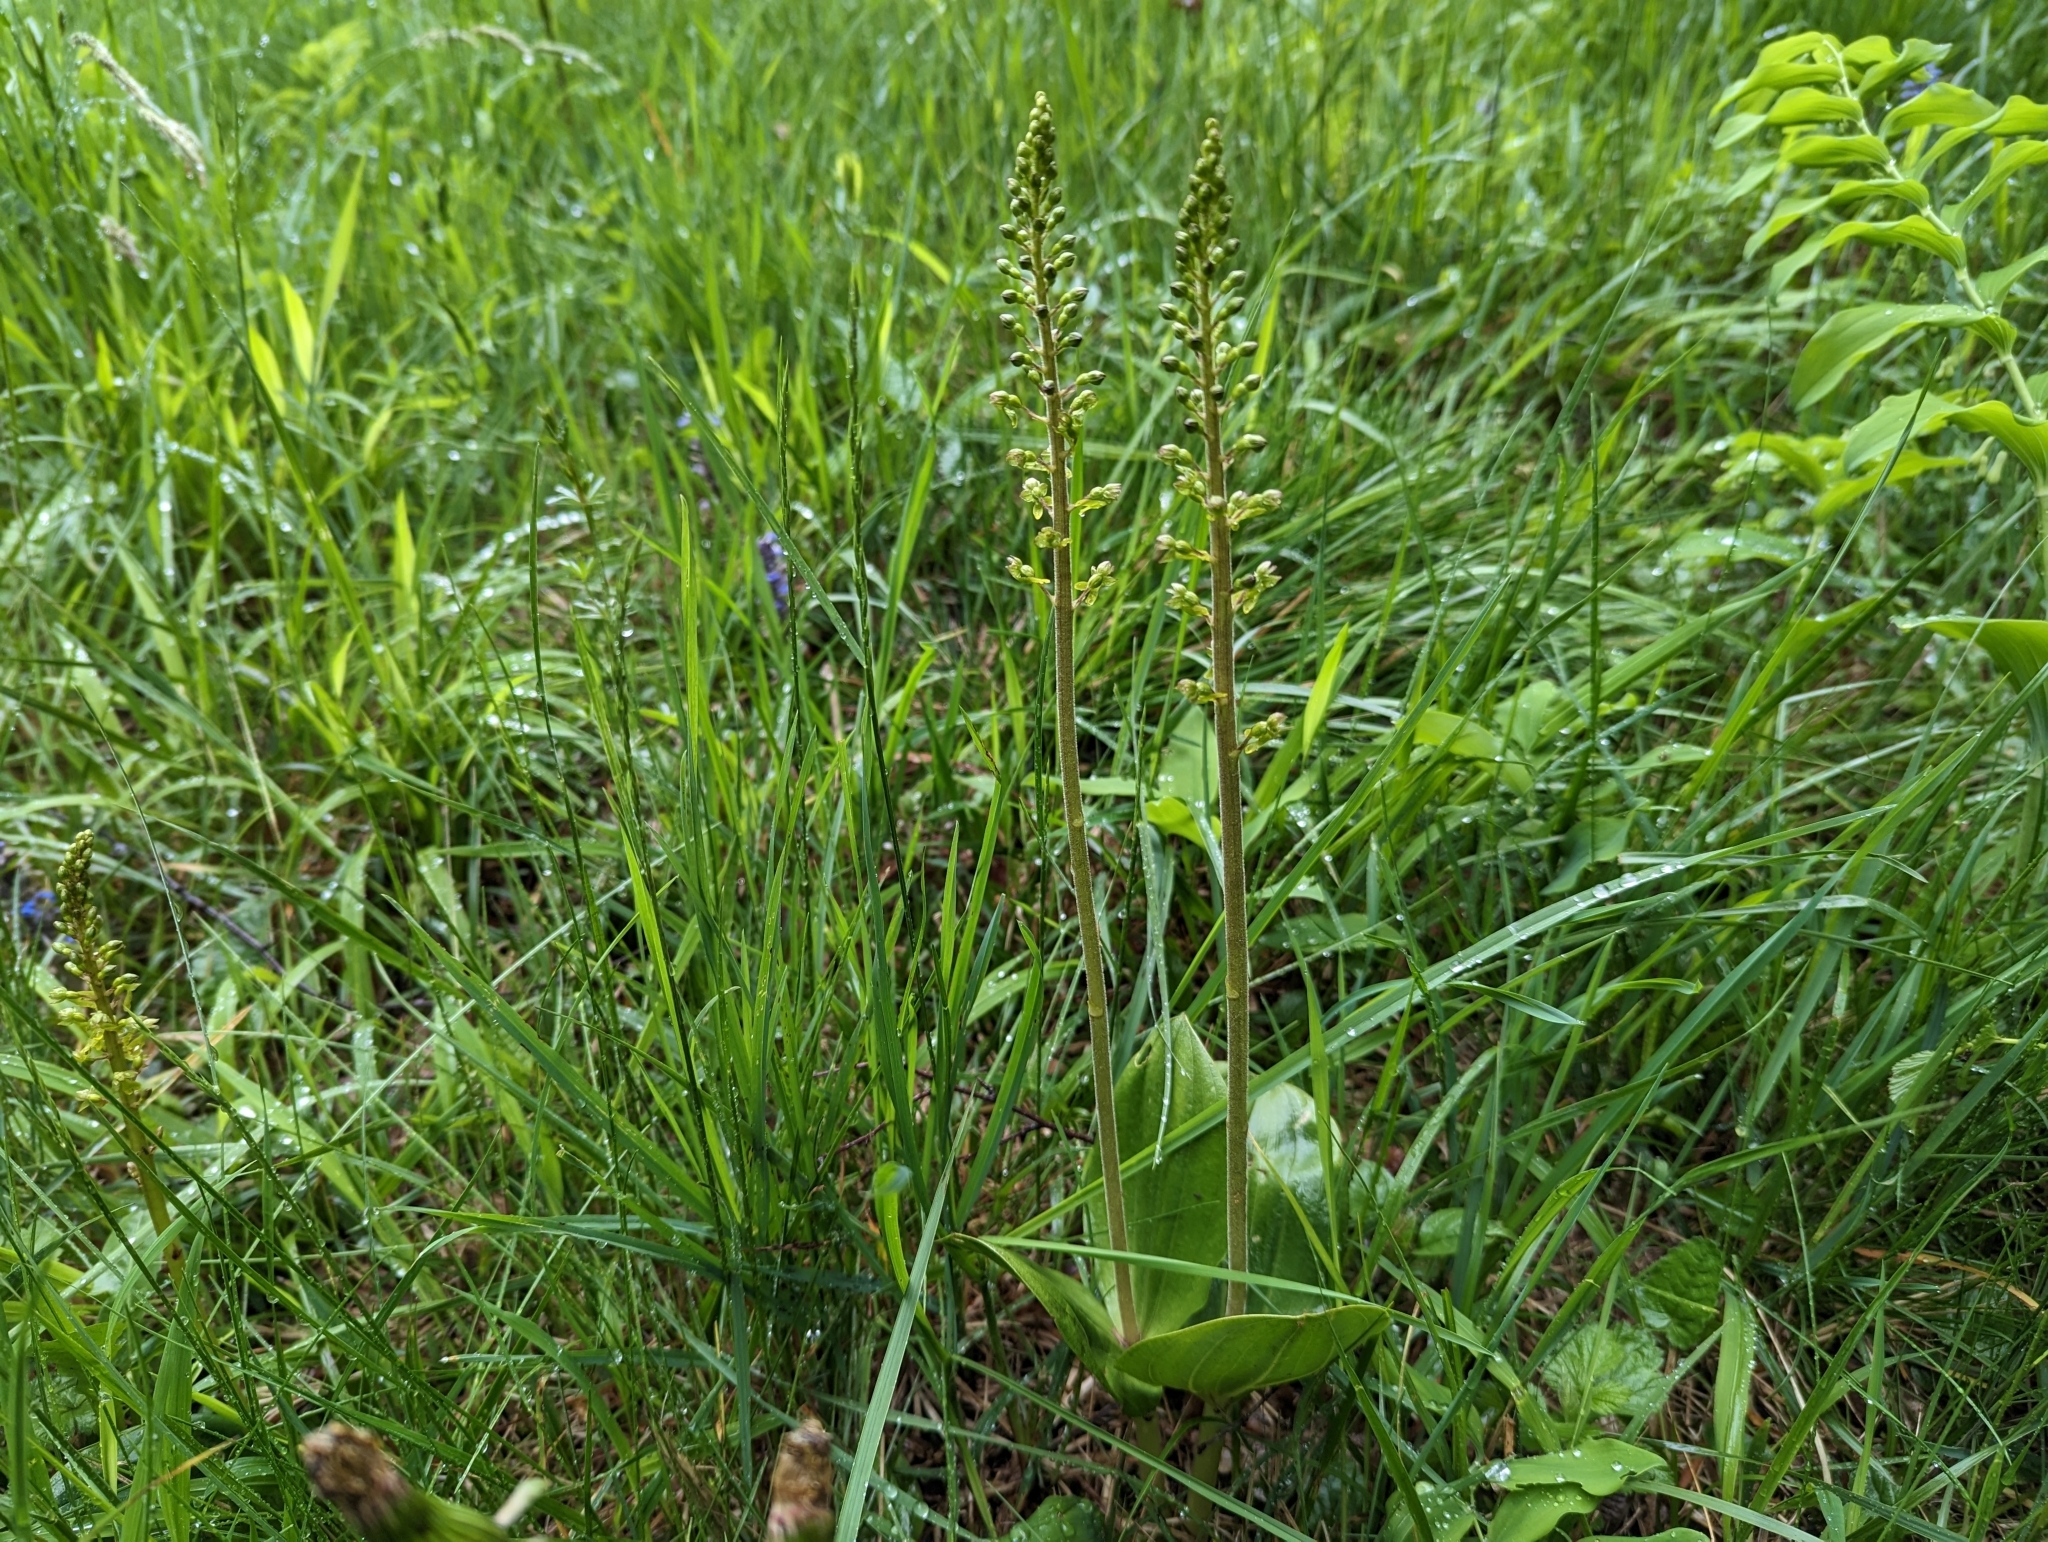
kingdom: Plantae
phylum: Tracheophyta
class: Liliopsida
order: Asparagales
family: Orchidaceae
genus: Neottia
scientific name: Neottia ovata
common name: Common twayblade
